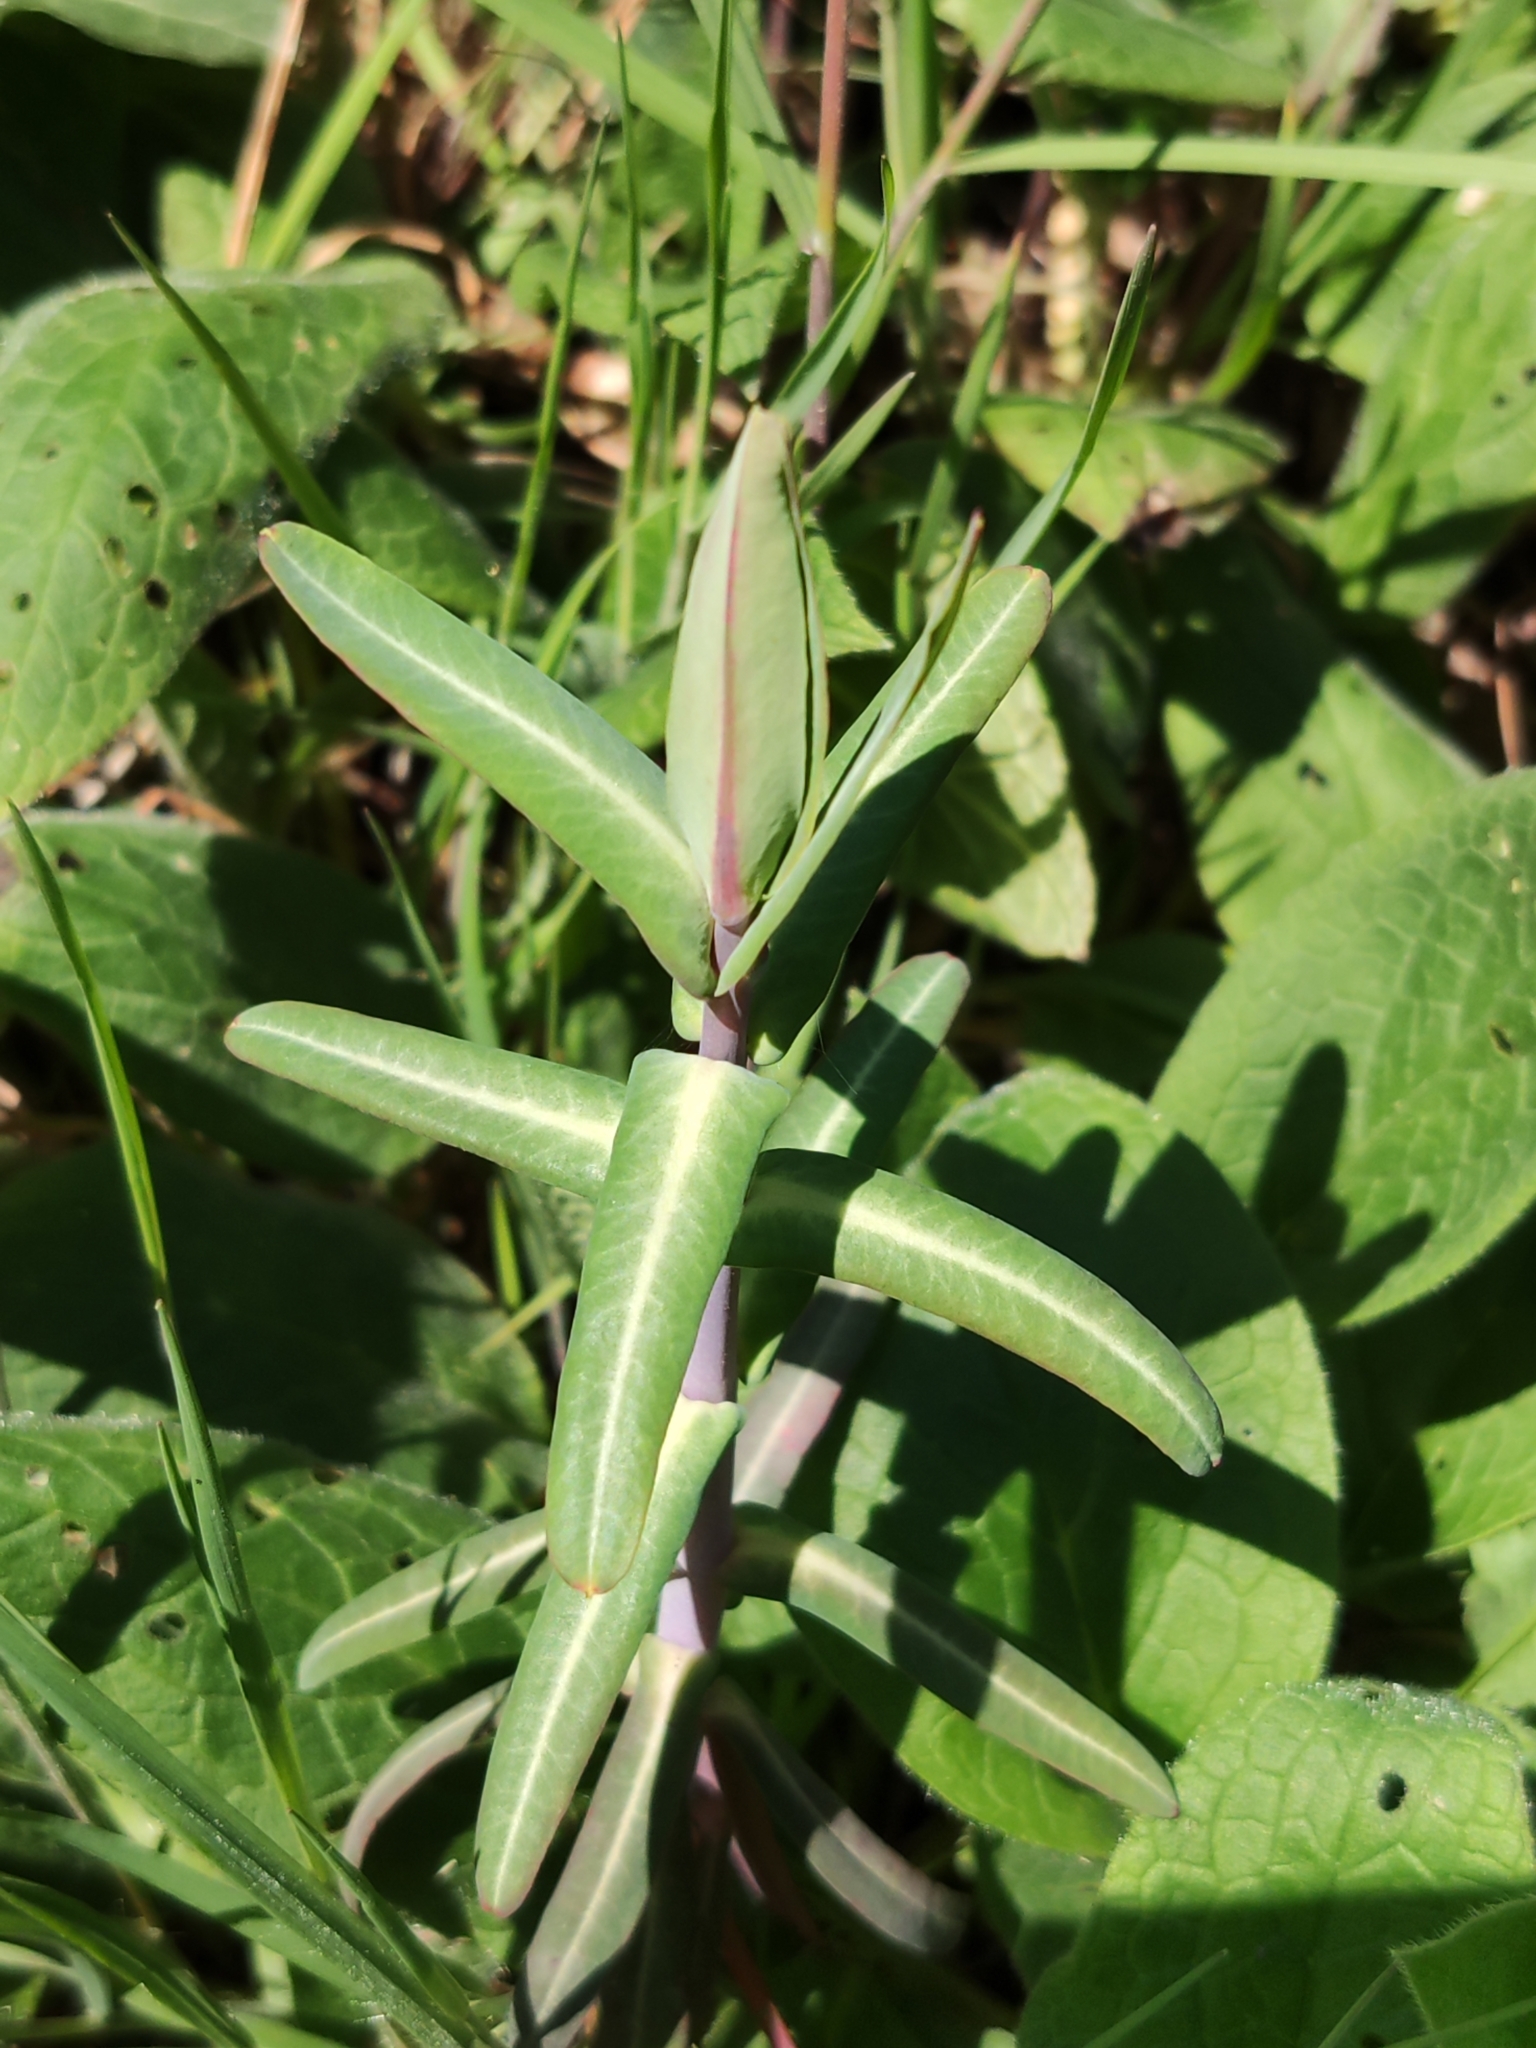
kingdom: Plantae
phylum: Tracheophyta
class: Magnoliopsida
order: Malpighiales
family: Euphorbiaceae
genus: Euphorbia
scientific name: Euphorbia lathyris
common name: Caper spurge
